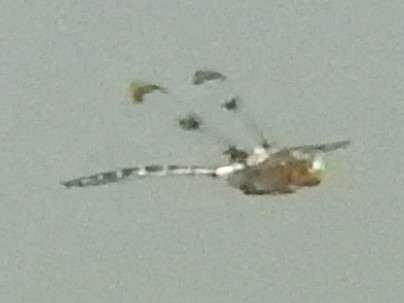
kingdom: Animalia
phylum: Arthropoda
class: Insecta
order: Odonata
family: Corduliidae
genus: Epitheca
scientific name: Epitheca princeps
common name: Prince baskettail
